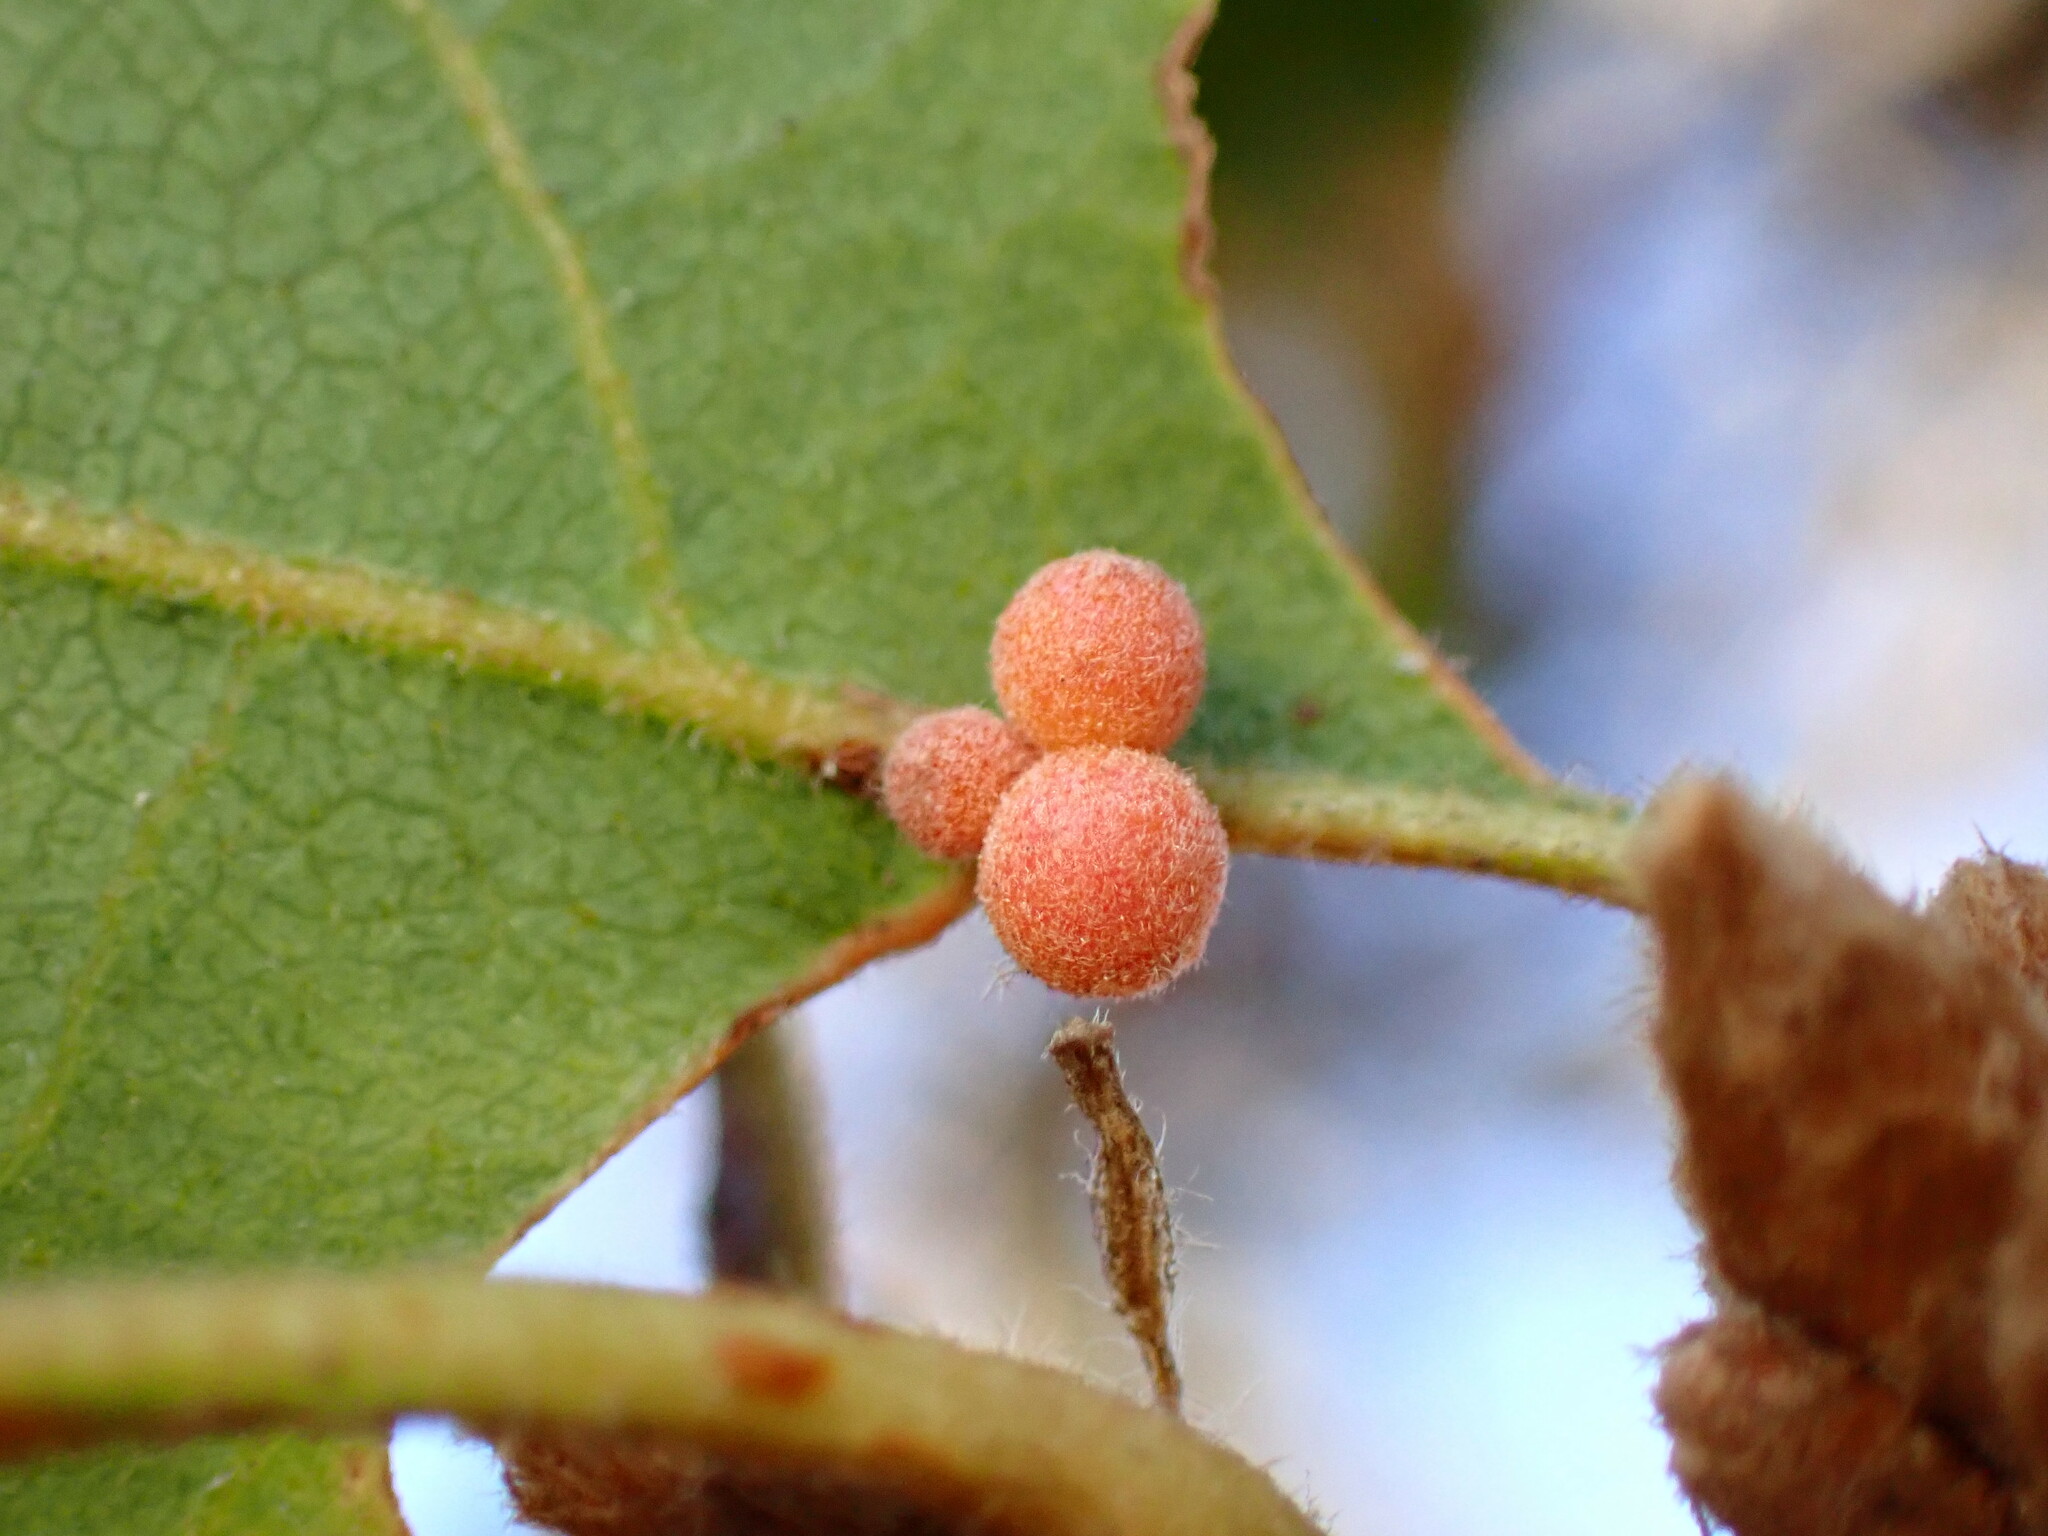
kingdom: Animalia
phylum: Arthropoda
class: Insecta
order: Hymenoptera
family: Cynipidae
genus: Andricus
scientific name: Andricus
